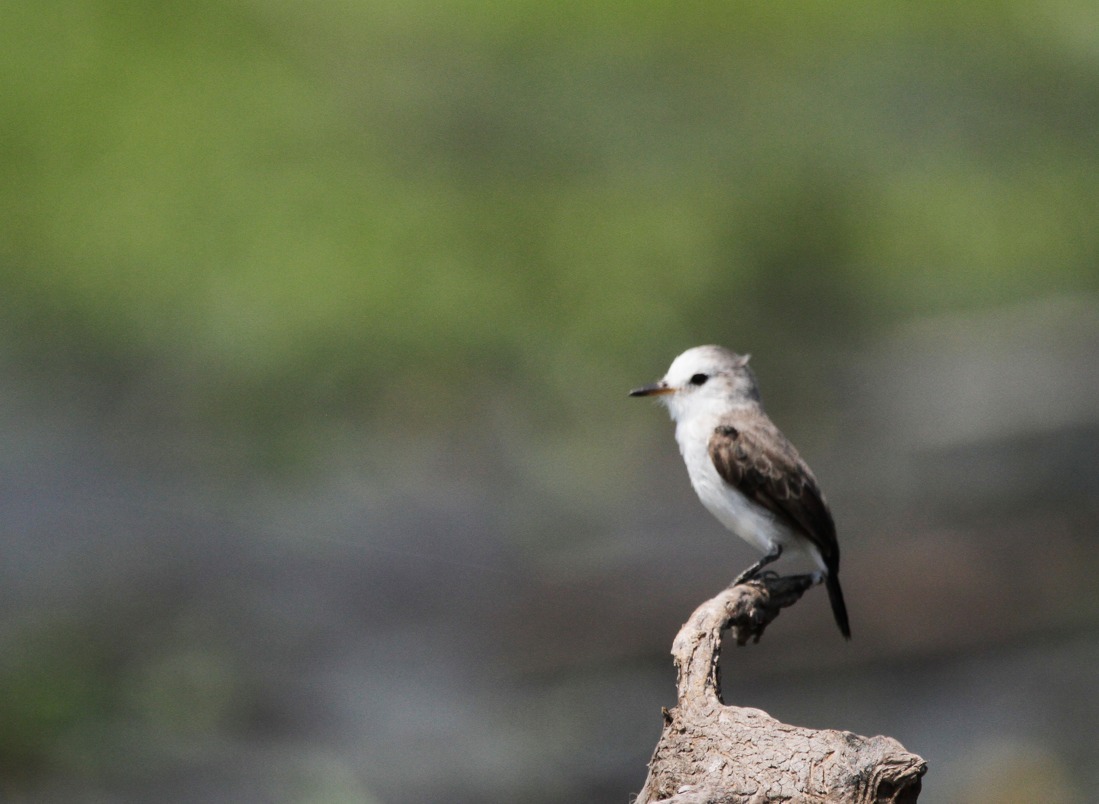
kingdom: Animalia
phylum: Chordata
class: Aves
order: Passeriformes
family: Tyrannidae
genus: Arundinicola
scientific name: Arundinicola leucocephala
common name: White-headed marsh tyrant
